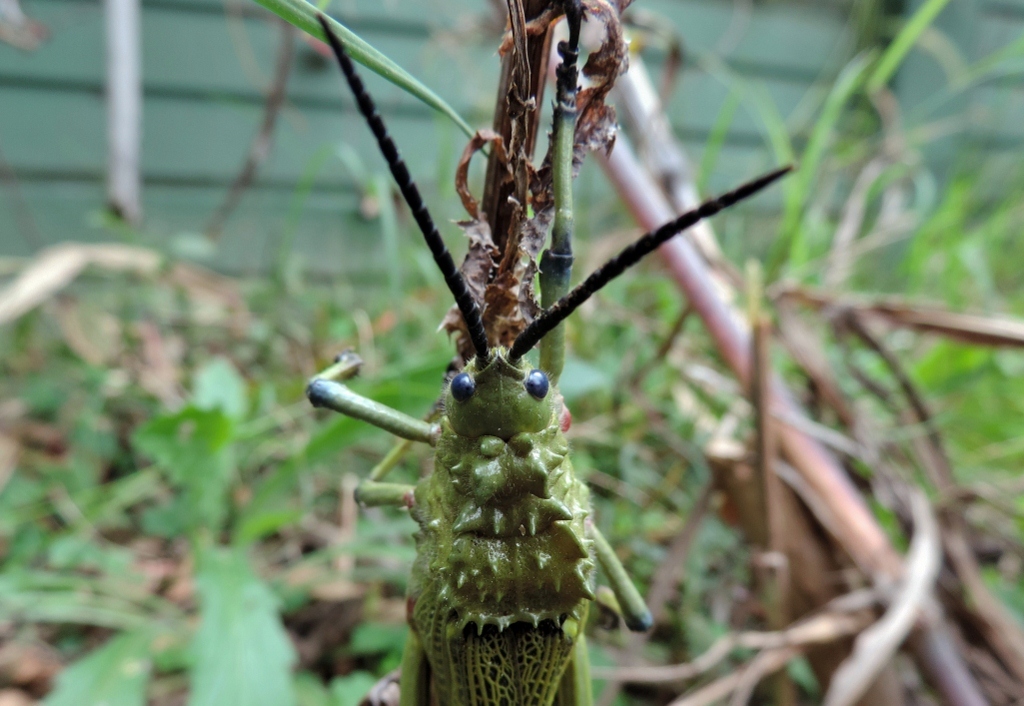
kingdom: Animalia
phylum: Arthropoda
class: Insecta
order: Orthoptera
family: Pyrgomorphidae
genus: Phymateus
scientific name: Phymateus viridipes
